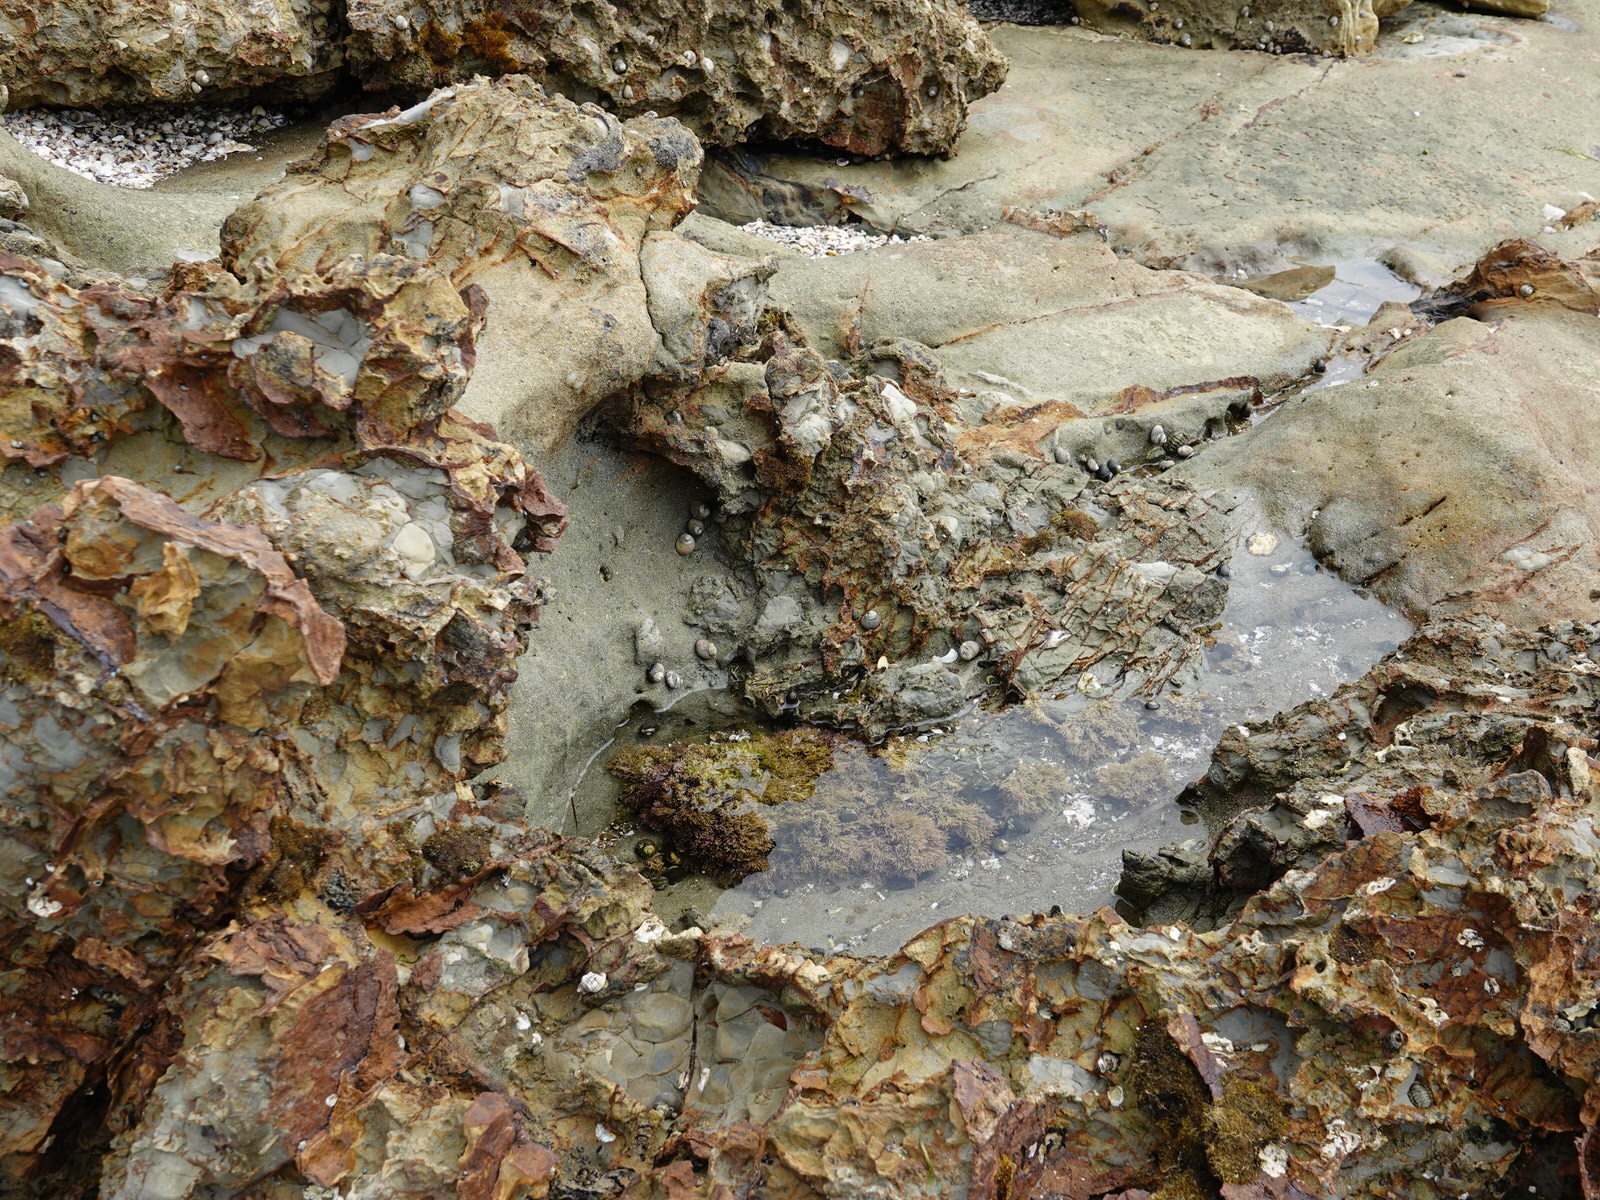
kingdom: Animalia
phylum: Mollusca
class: Gastropoda
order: Trochida
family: Trochidae
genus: Diloma
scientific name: Diloma aethiops
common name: Scorched monodont
